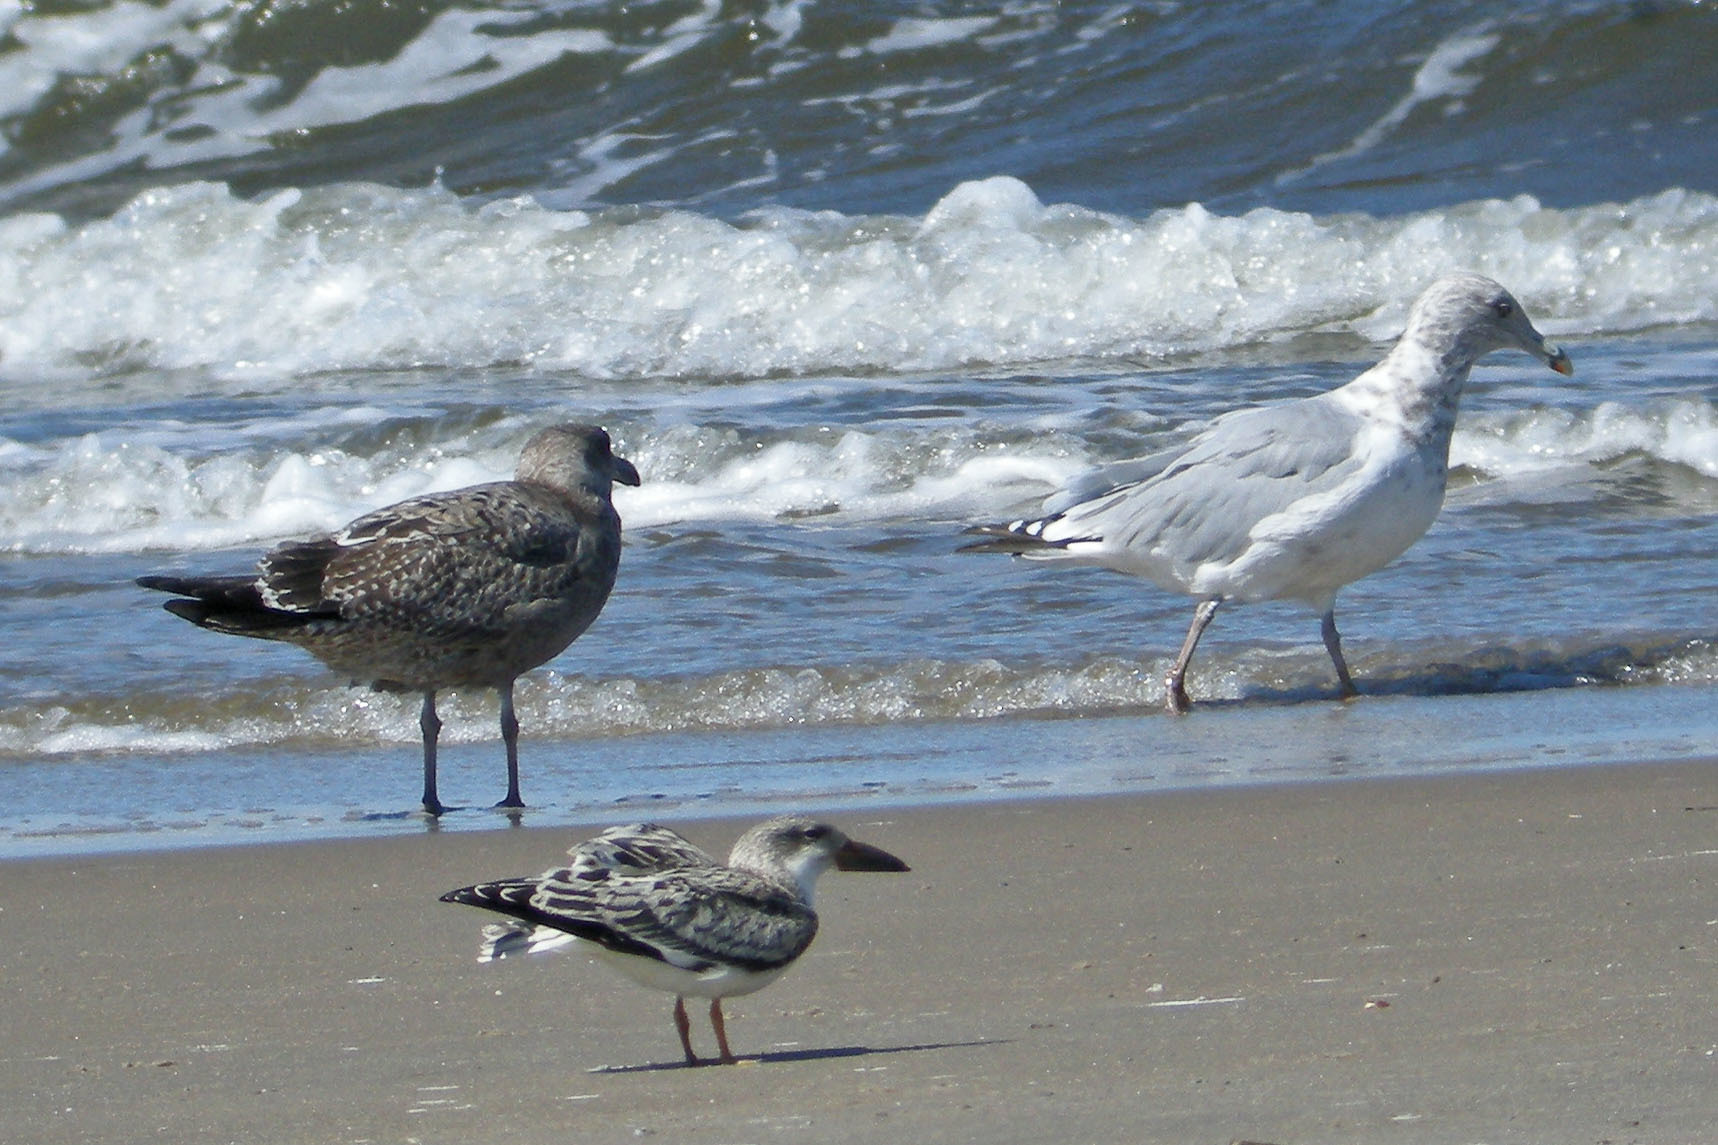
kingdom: Animalia
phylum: Chordata
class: Aves
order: Charadriiformes
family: Laridae
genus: Rynchops
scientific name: Rynchops niger
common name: Black skimmer
